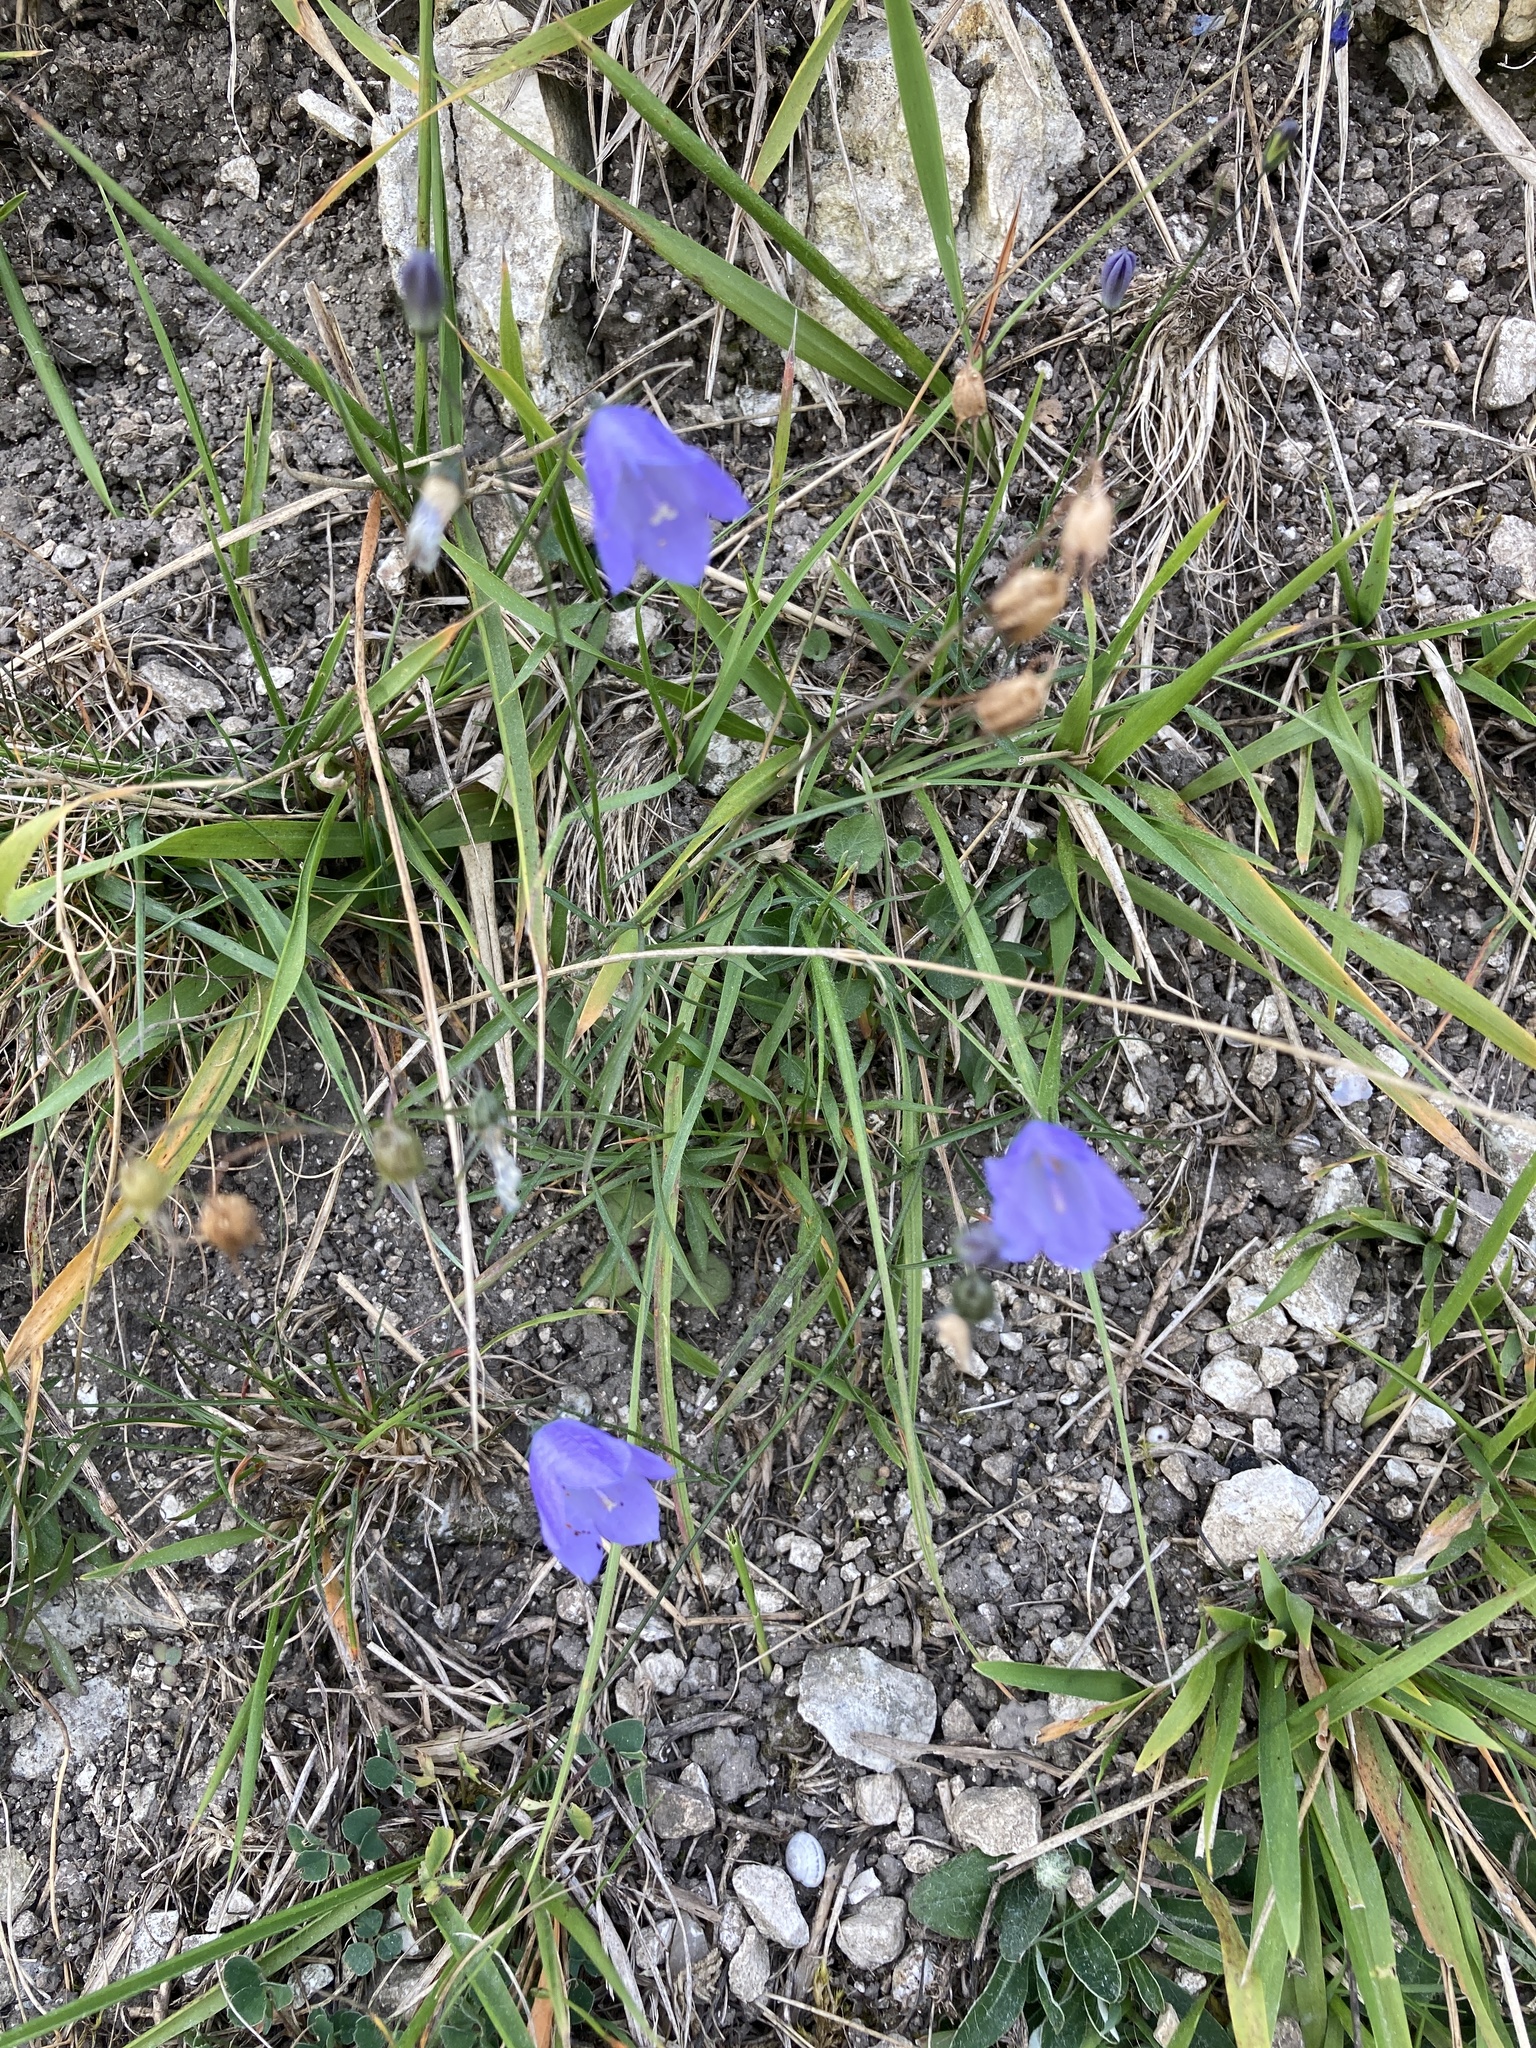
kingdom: Plantae
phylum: Tracheophyta
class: Magnoliopsida
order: Asterales
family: Campanulaceae
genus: Campanula
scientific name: Campanula rotundifolia
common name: Harebell
